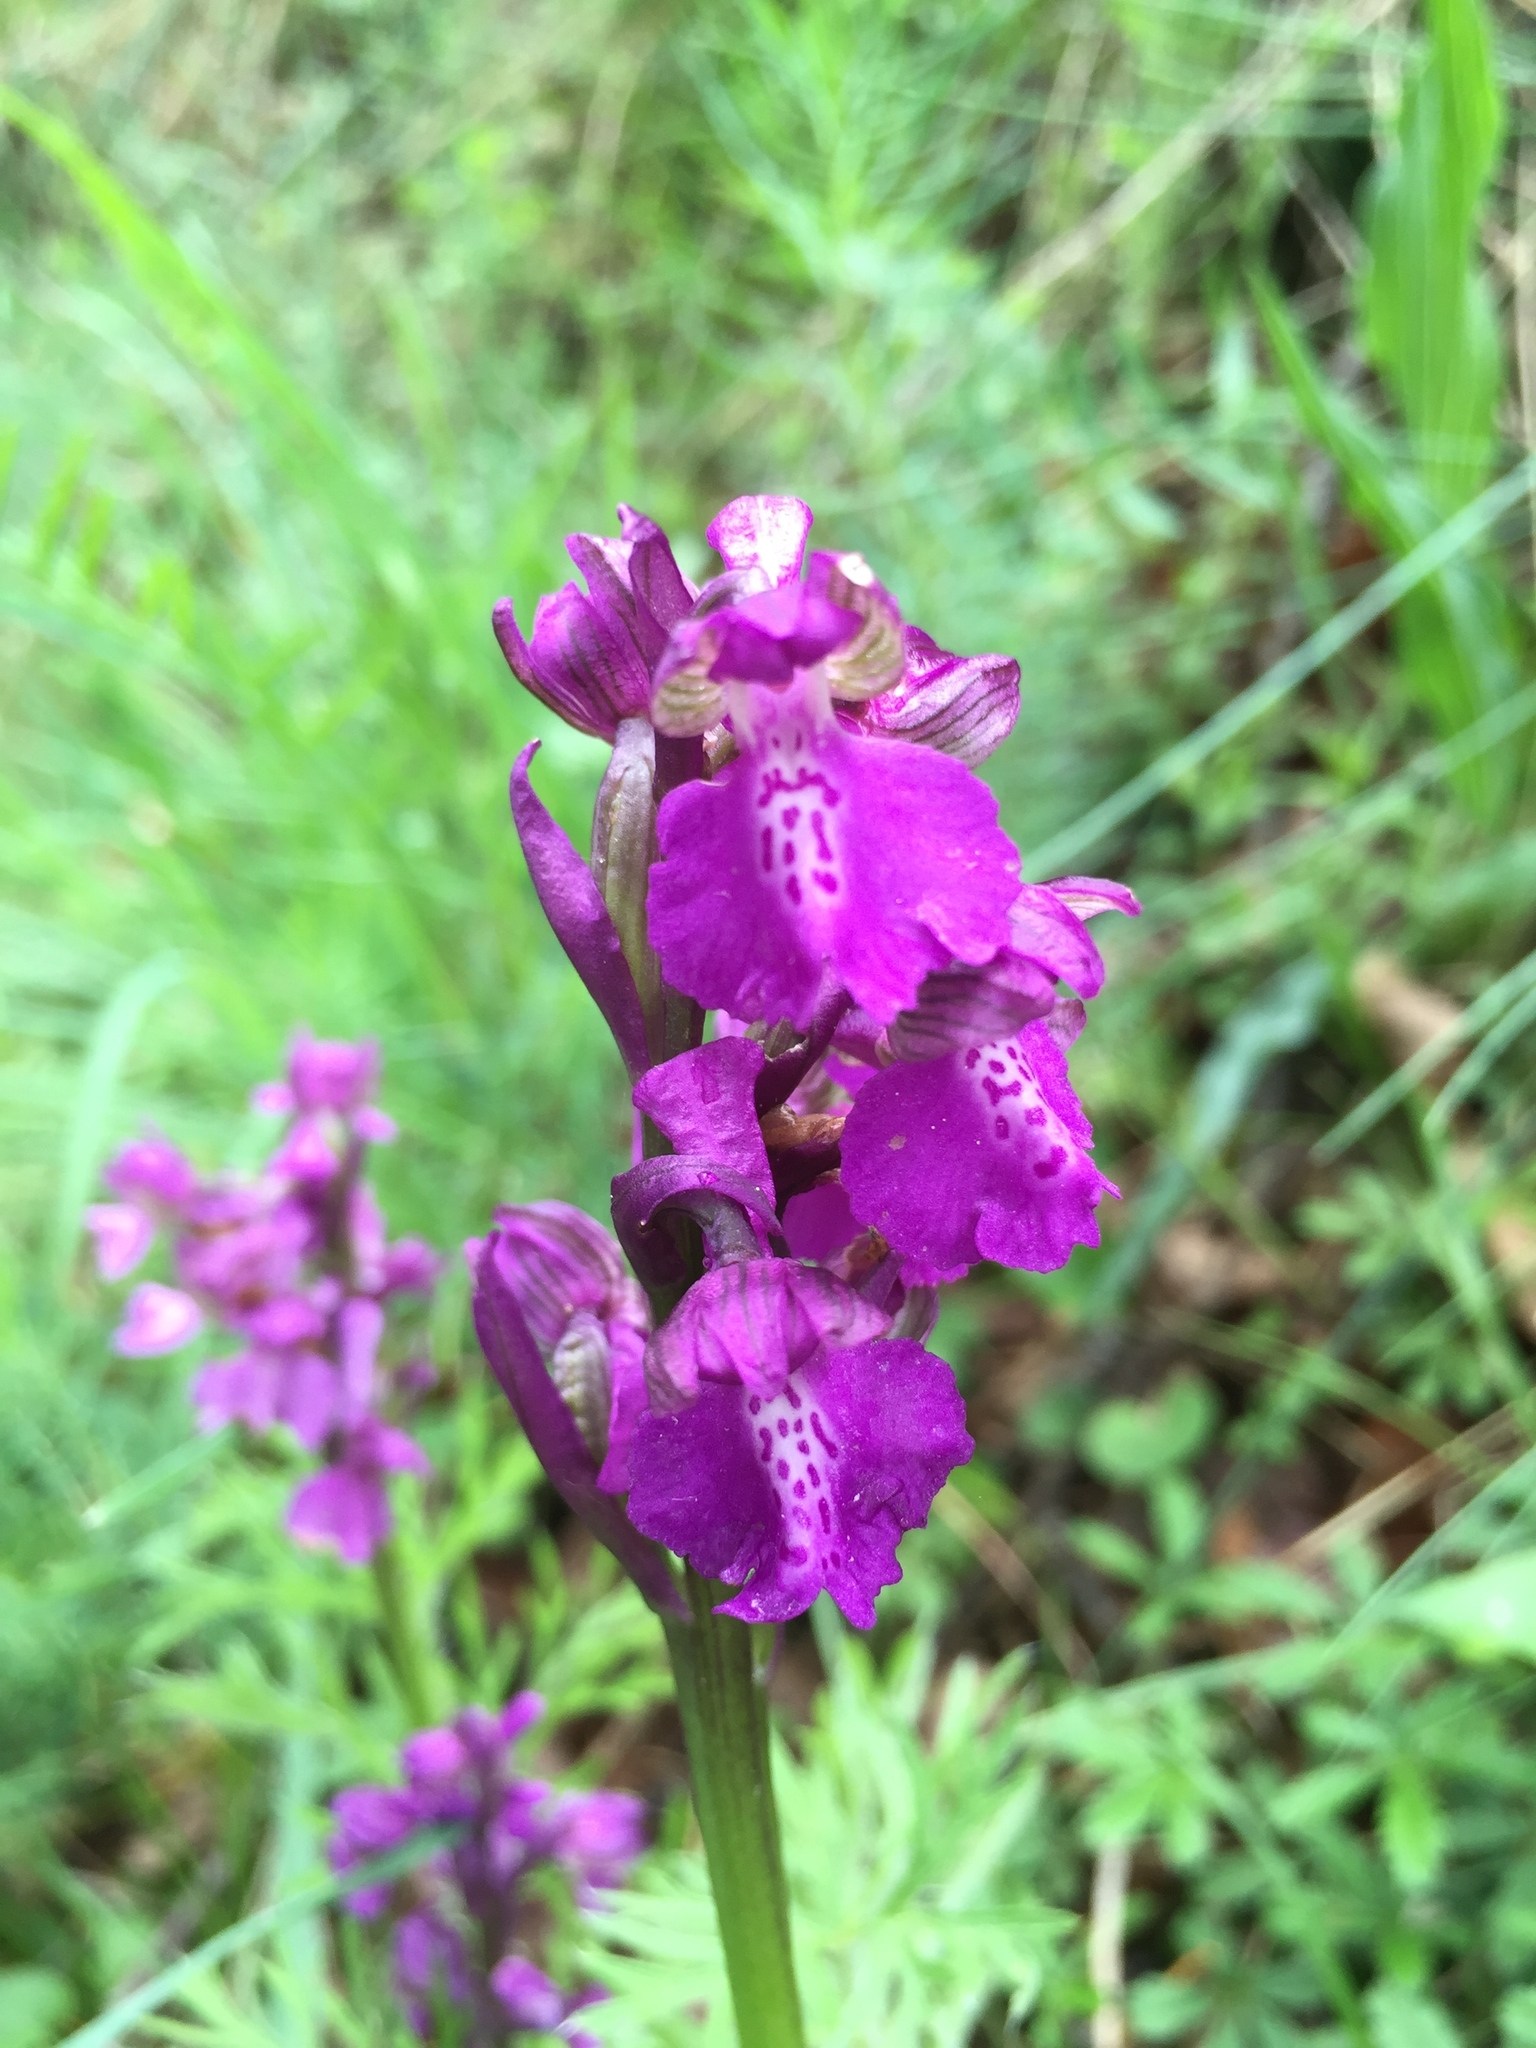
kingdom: Plantae
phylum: Tracheophyta
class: Liliopsida
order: Asparagales
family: Orchidaceae
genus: Anacamptis
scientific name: Anacamptis morio
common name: Green-winged orchid
